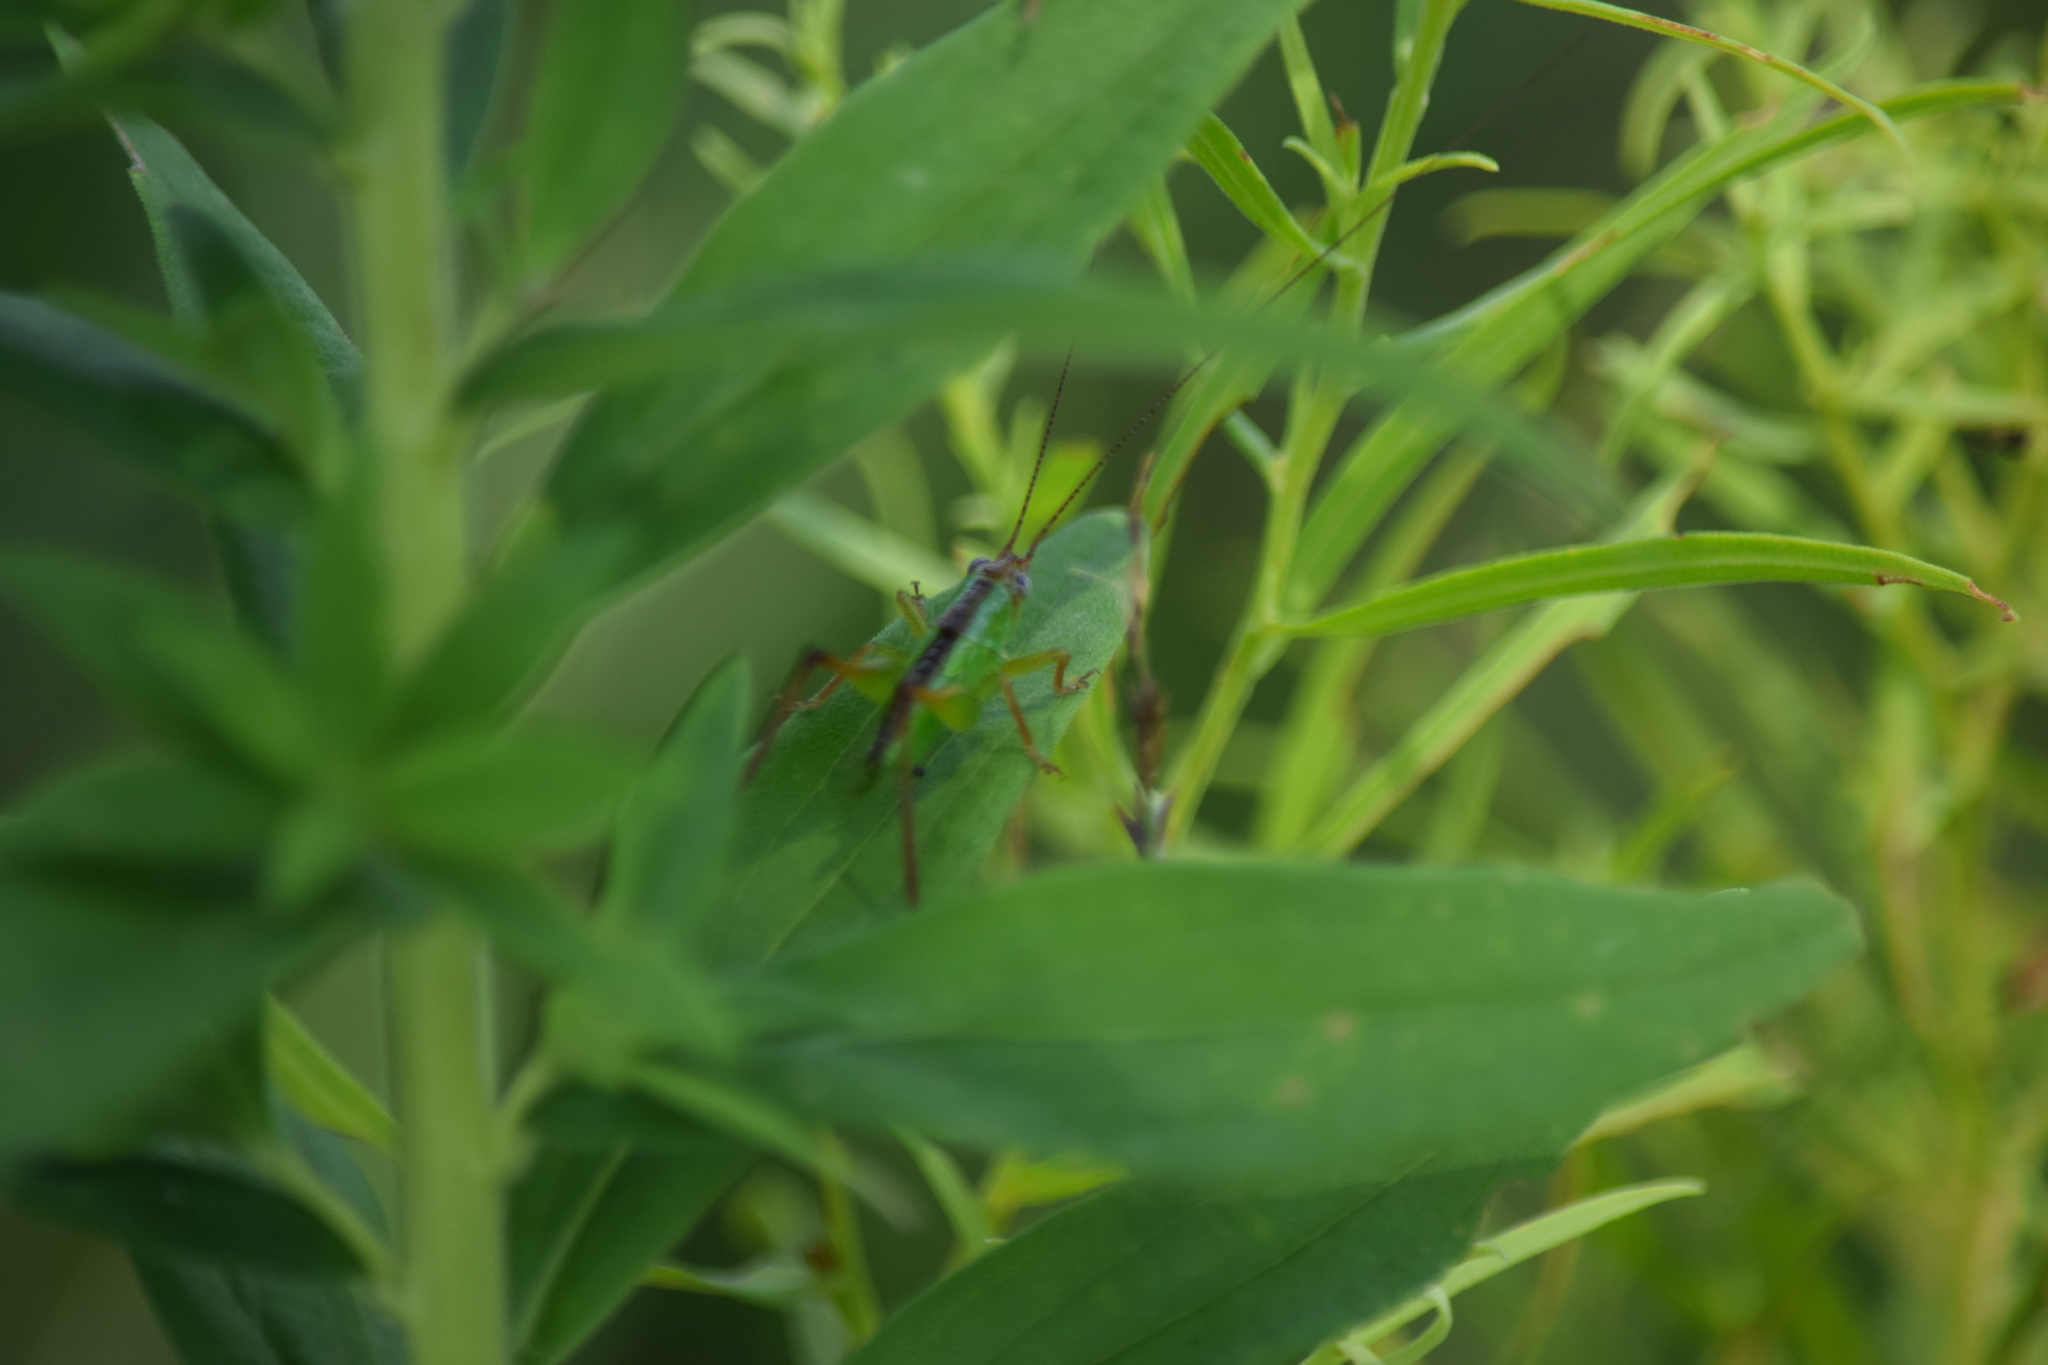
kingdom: Animalia
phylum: Arthropoda
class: Insecta
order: Orthoptera
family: Tettigoniidae
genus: Orchelimum
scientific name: Orchelimum pulchellum
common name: Handsome meadow katydid
